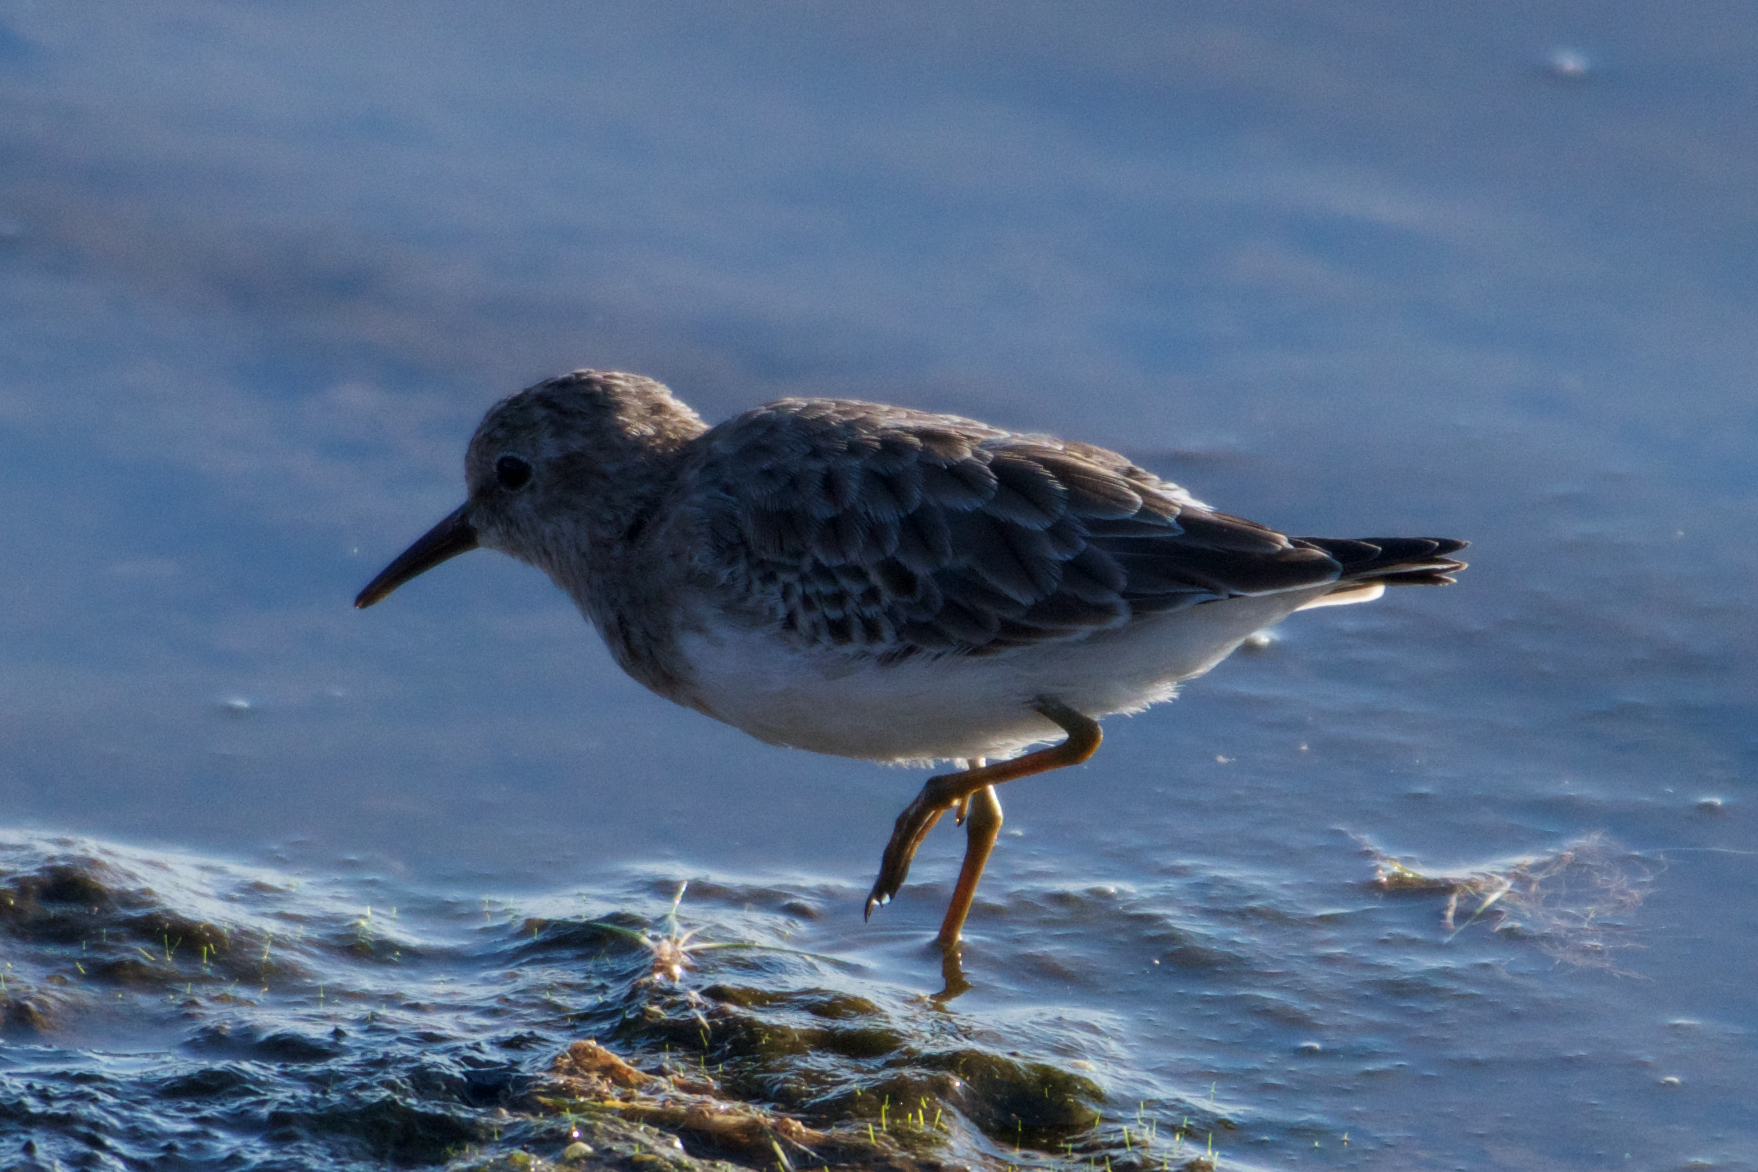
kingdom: Animalia
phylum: Chordata
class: Aves
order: Charadriiformes
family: Scolopacidae
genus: Calidris
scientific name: Calidris minutilla
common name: Least sandpiper
